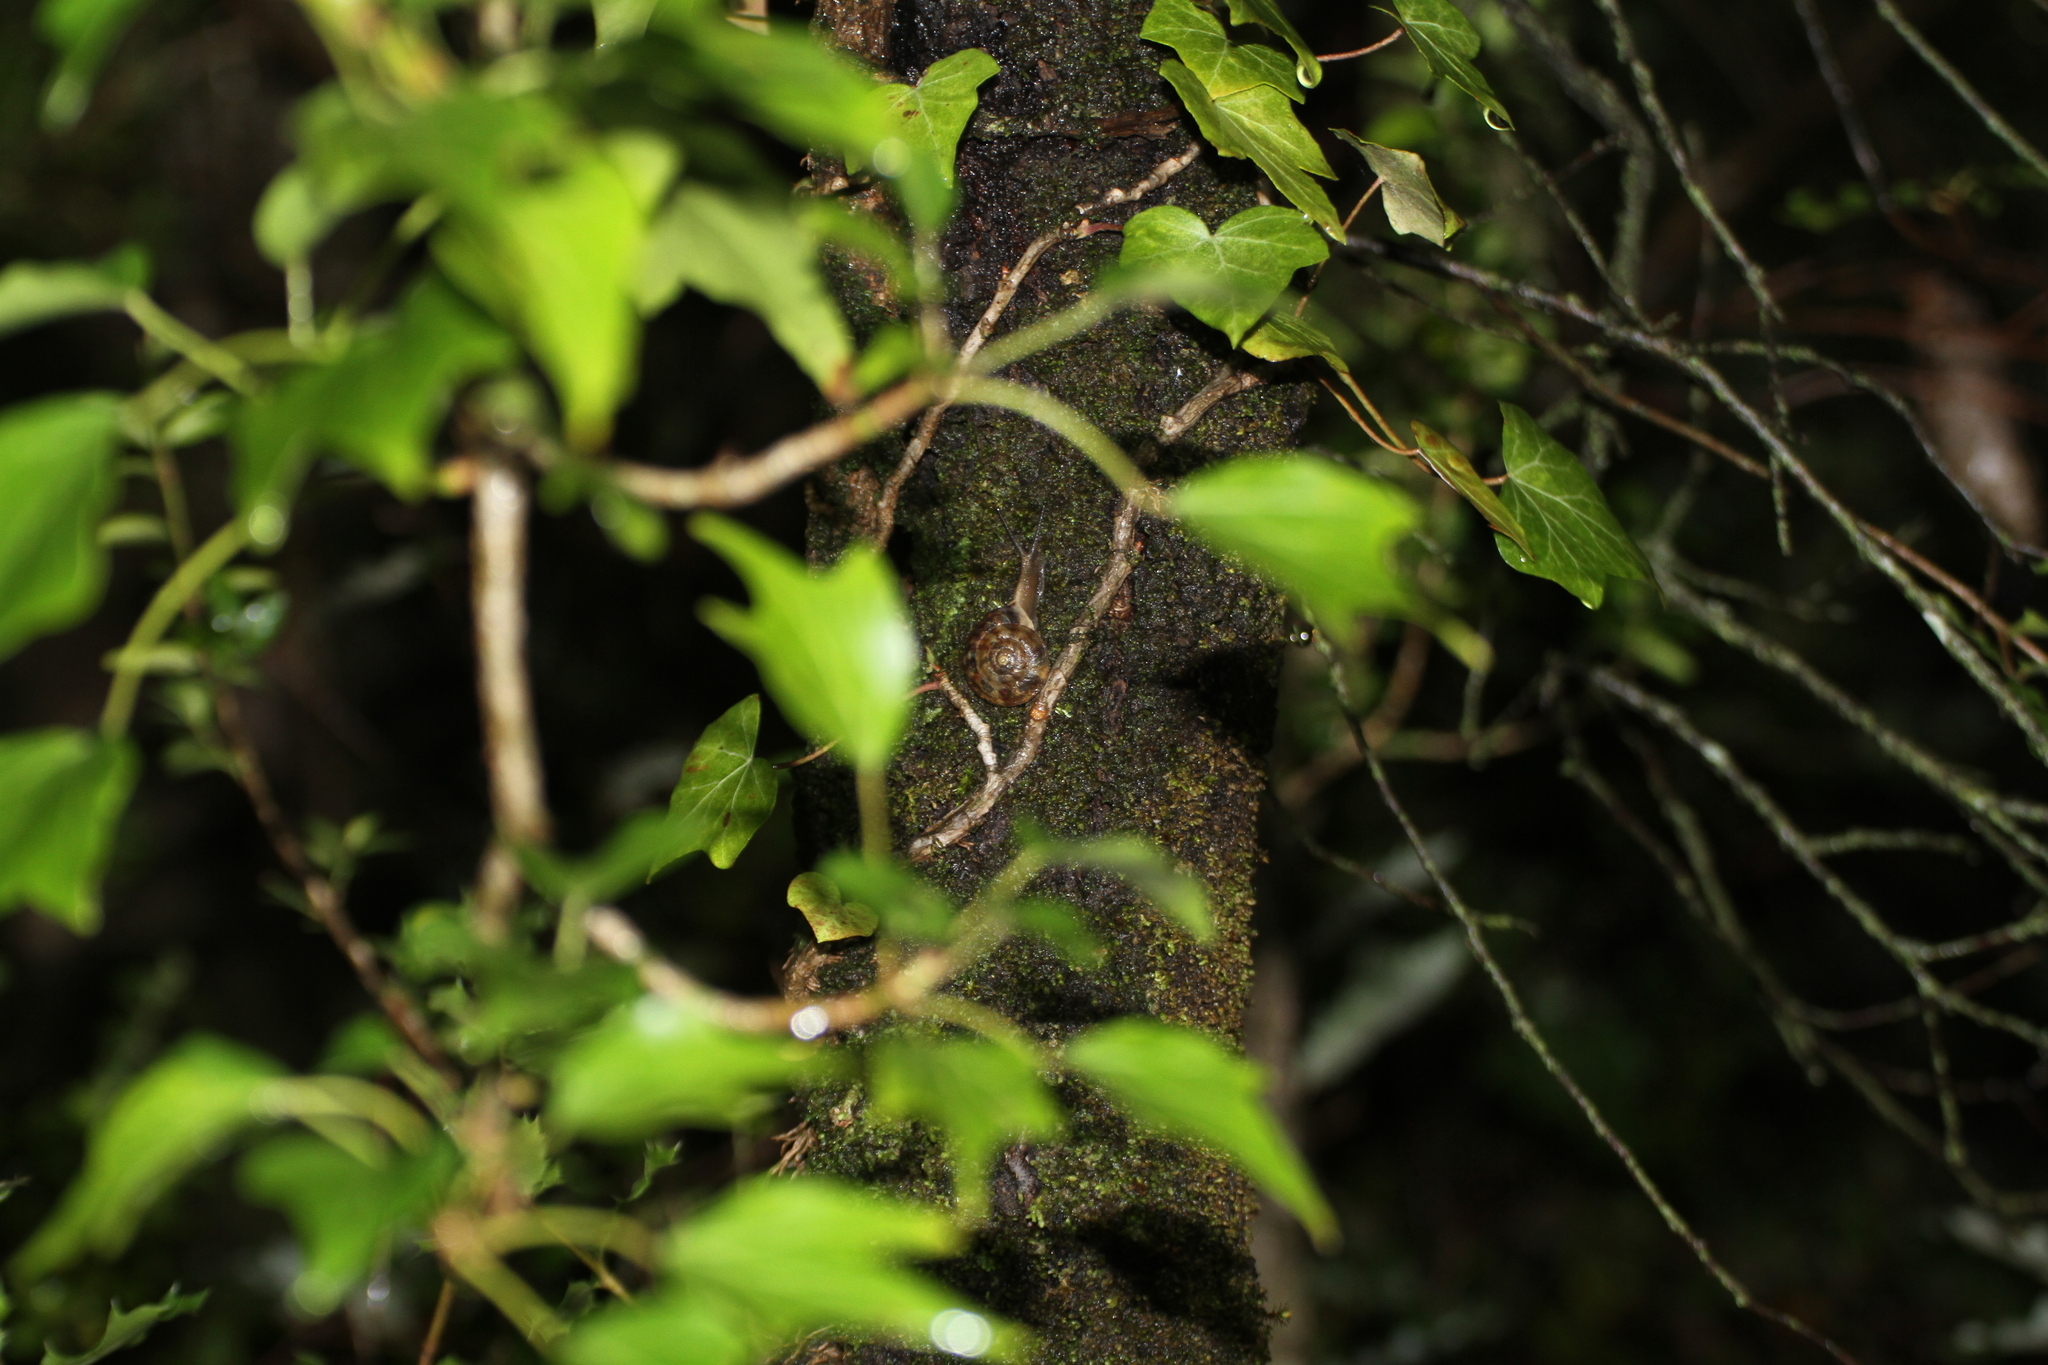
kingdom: Animalia
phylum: Mollusca
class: Gastropoda
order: Stylommatophora
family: Helicidae
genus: Helicigona
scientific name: Helicigona lapicida
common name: Lapidary snail
